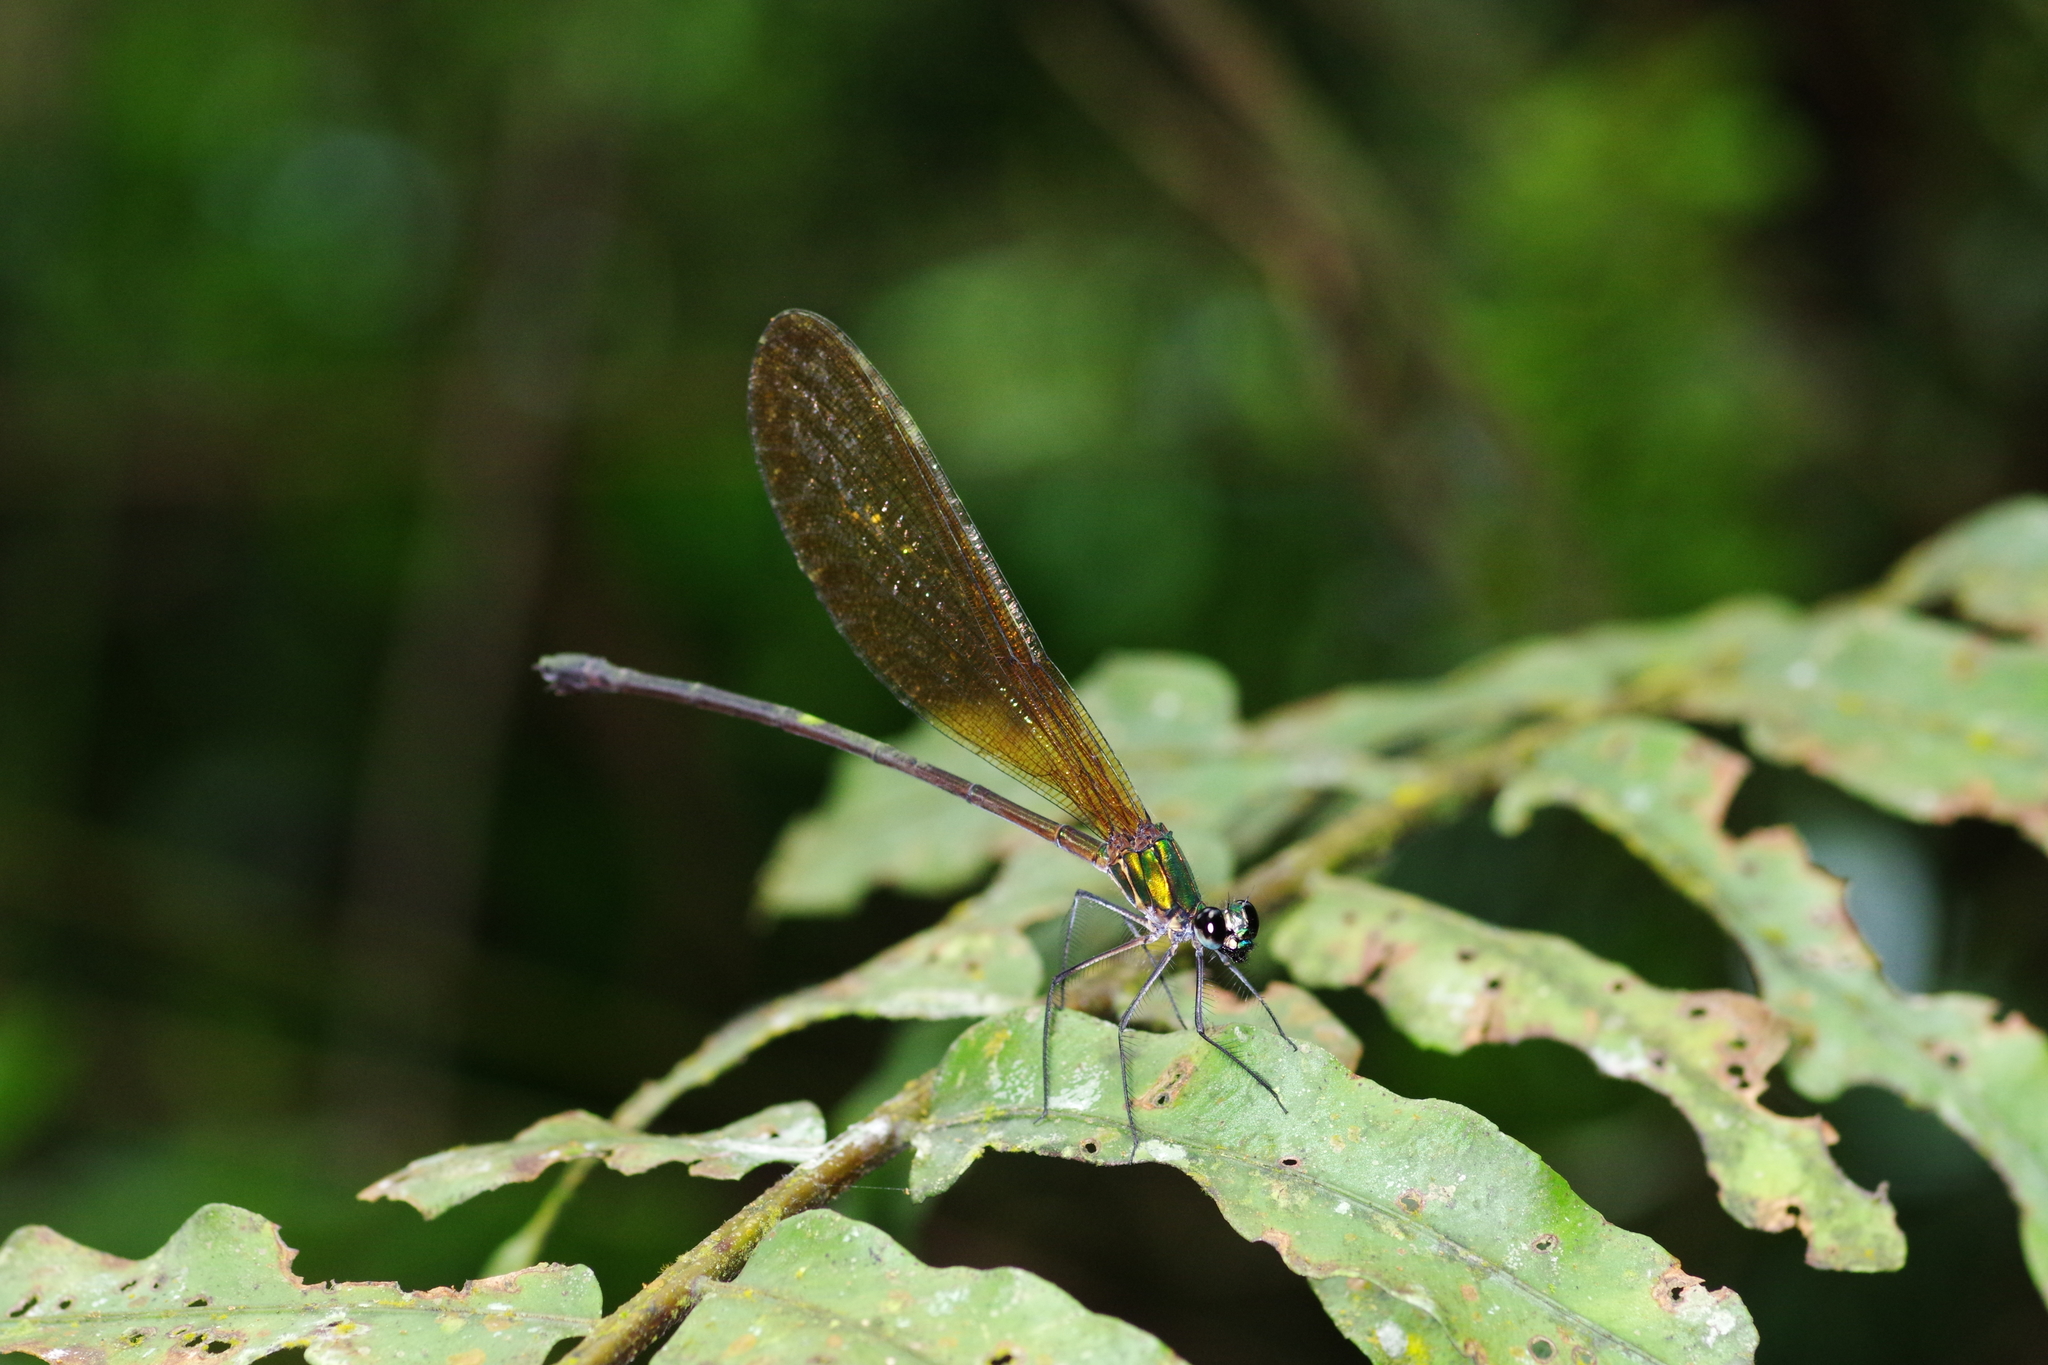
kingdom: Animalia
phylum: Arthropoda
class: Insecta
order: Odonata
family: Calopterygidae
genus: Vestalis
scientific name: Vestalis luctuosa
